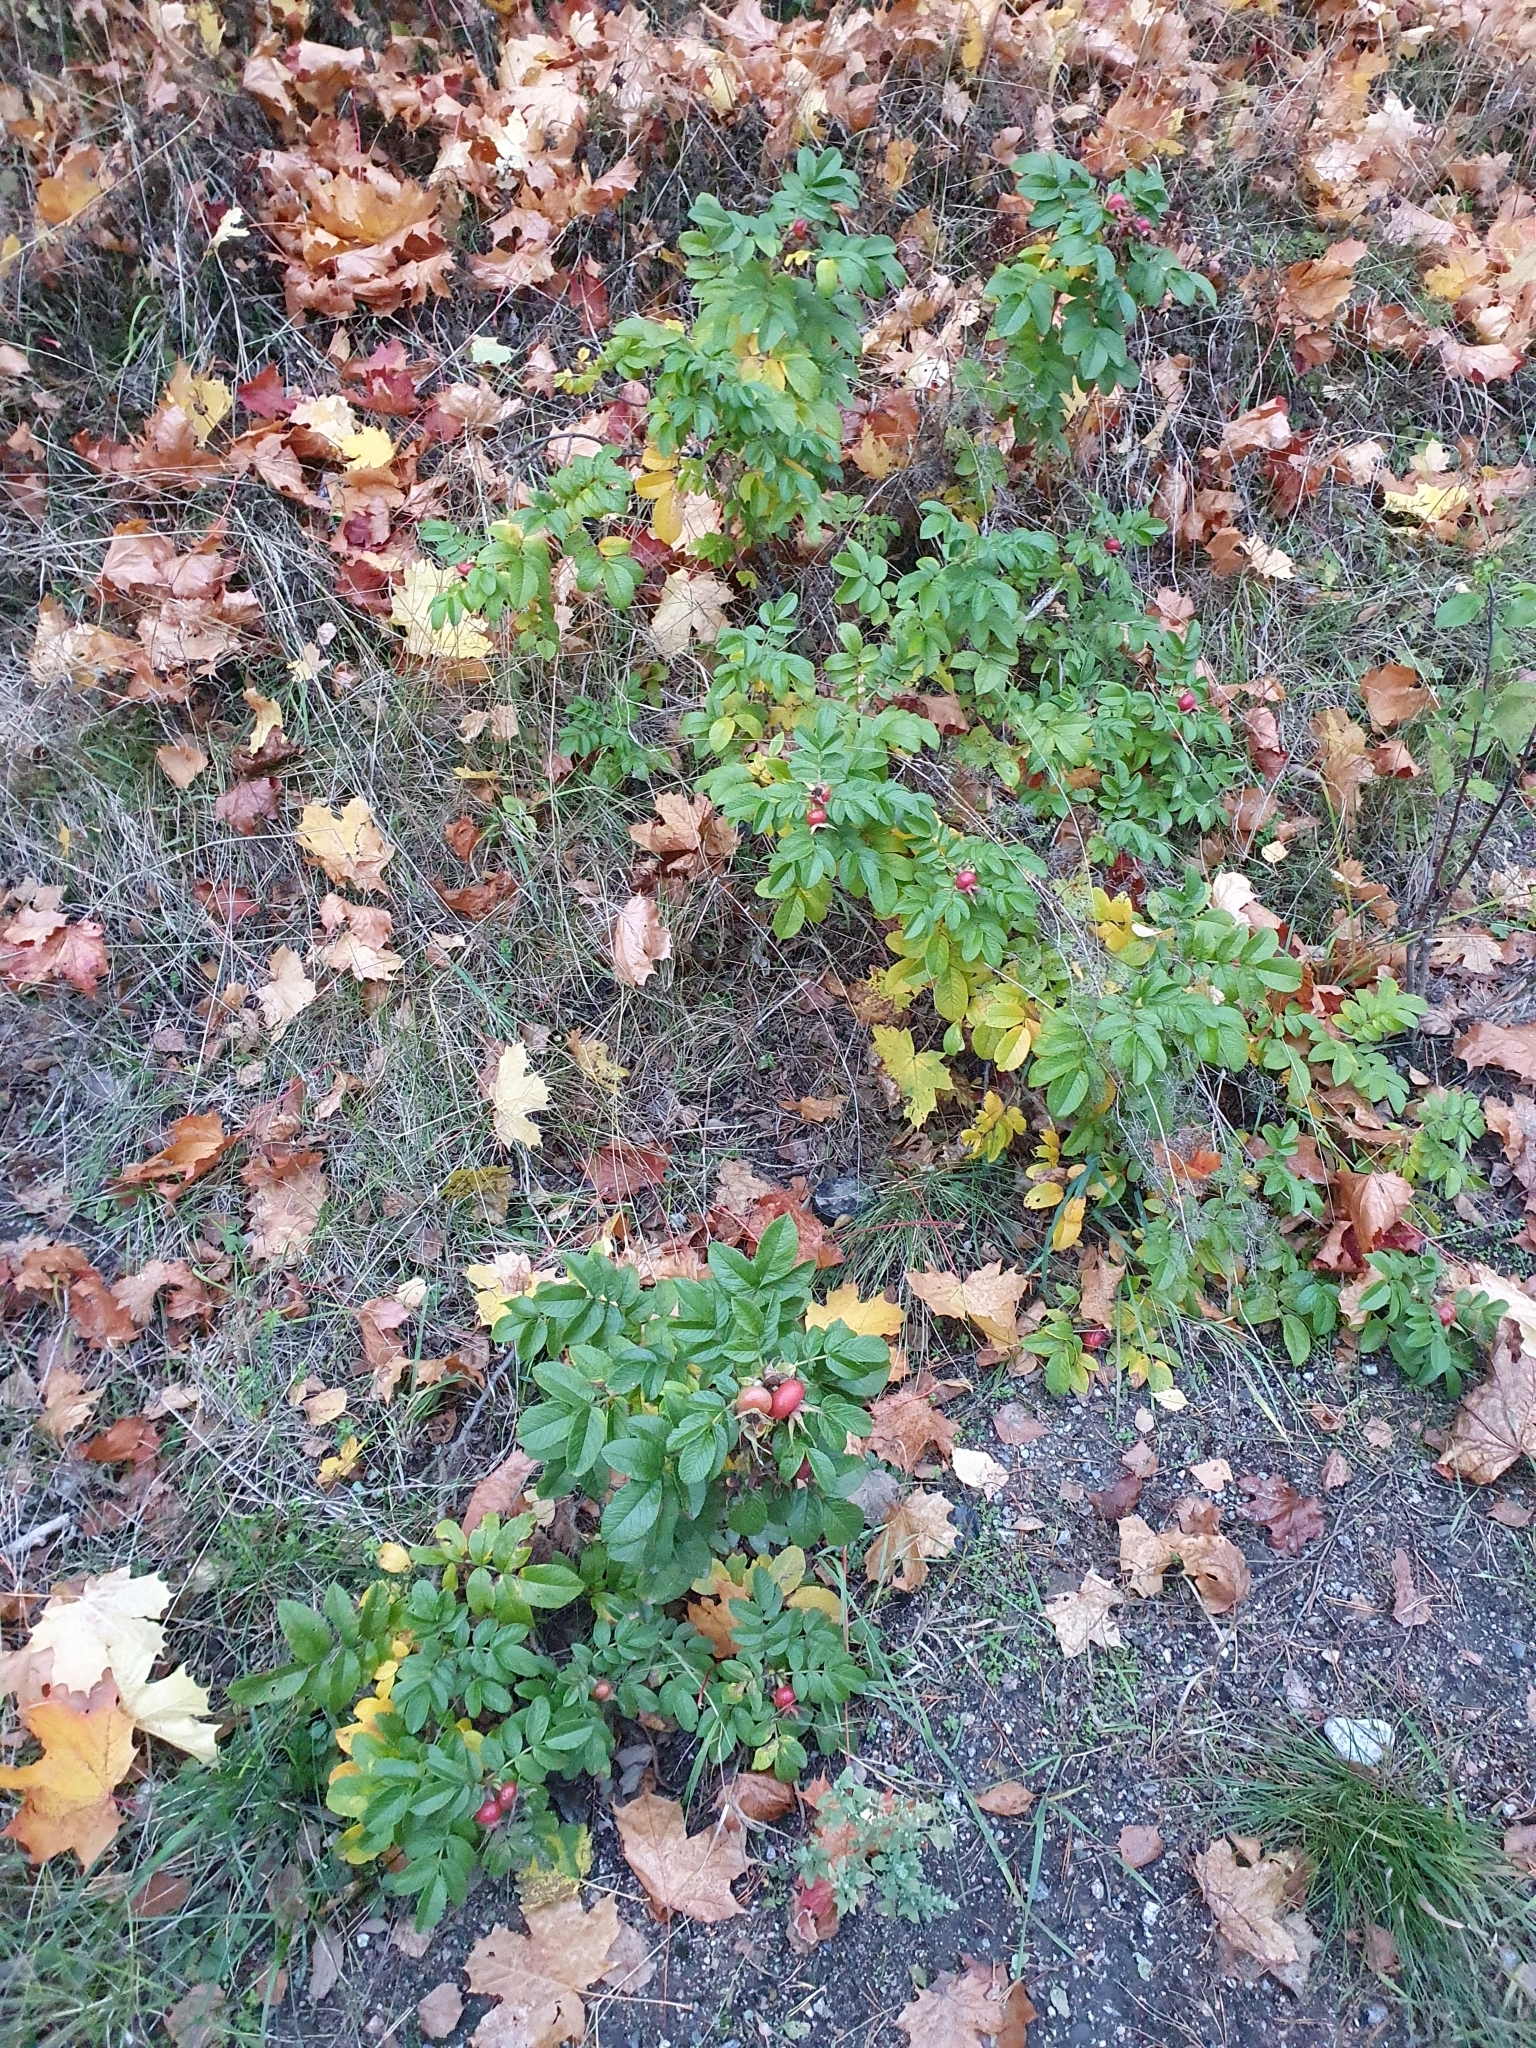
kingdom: Plantae
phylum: Tracheophyta
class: Magnoliopsida
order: Rosales
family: Rosaceae
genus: Rosa
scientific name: Rosa rugosa
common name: Japanese rose
